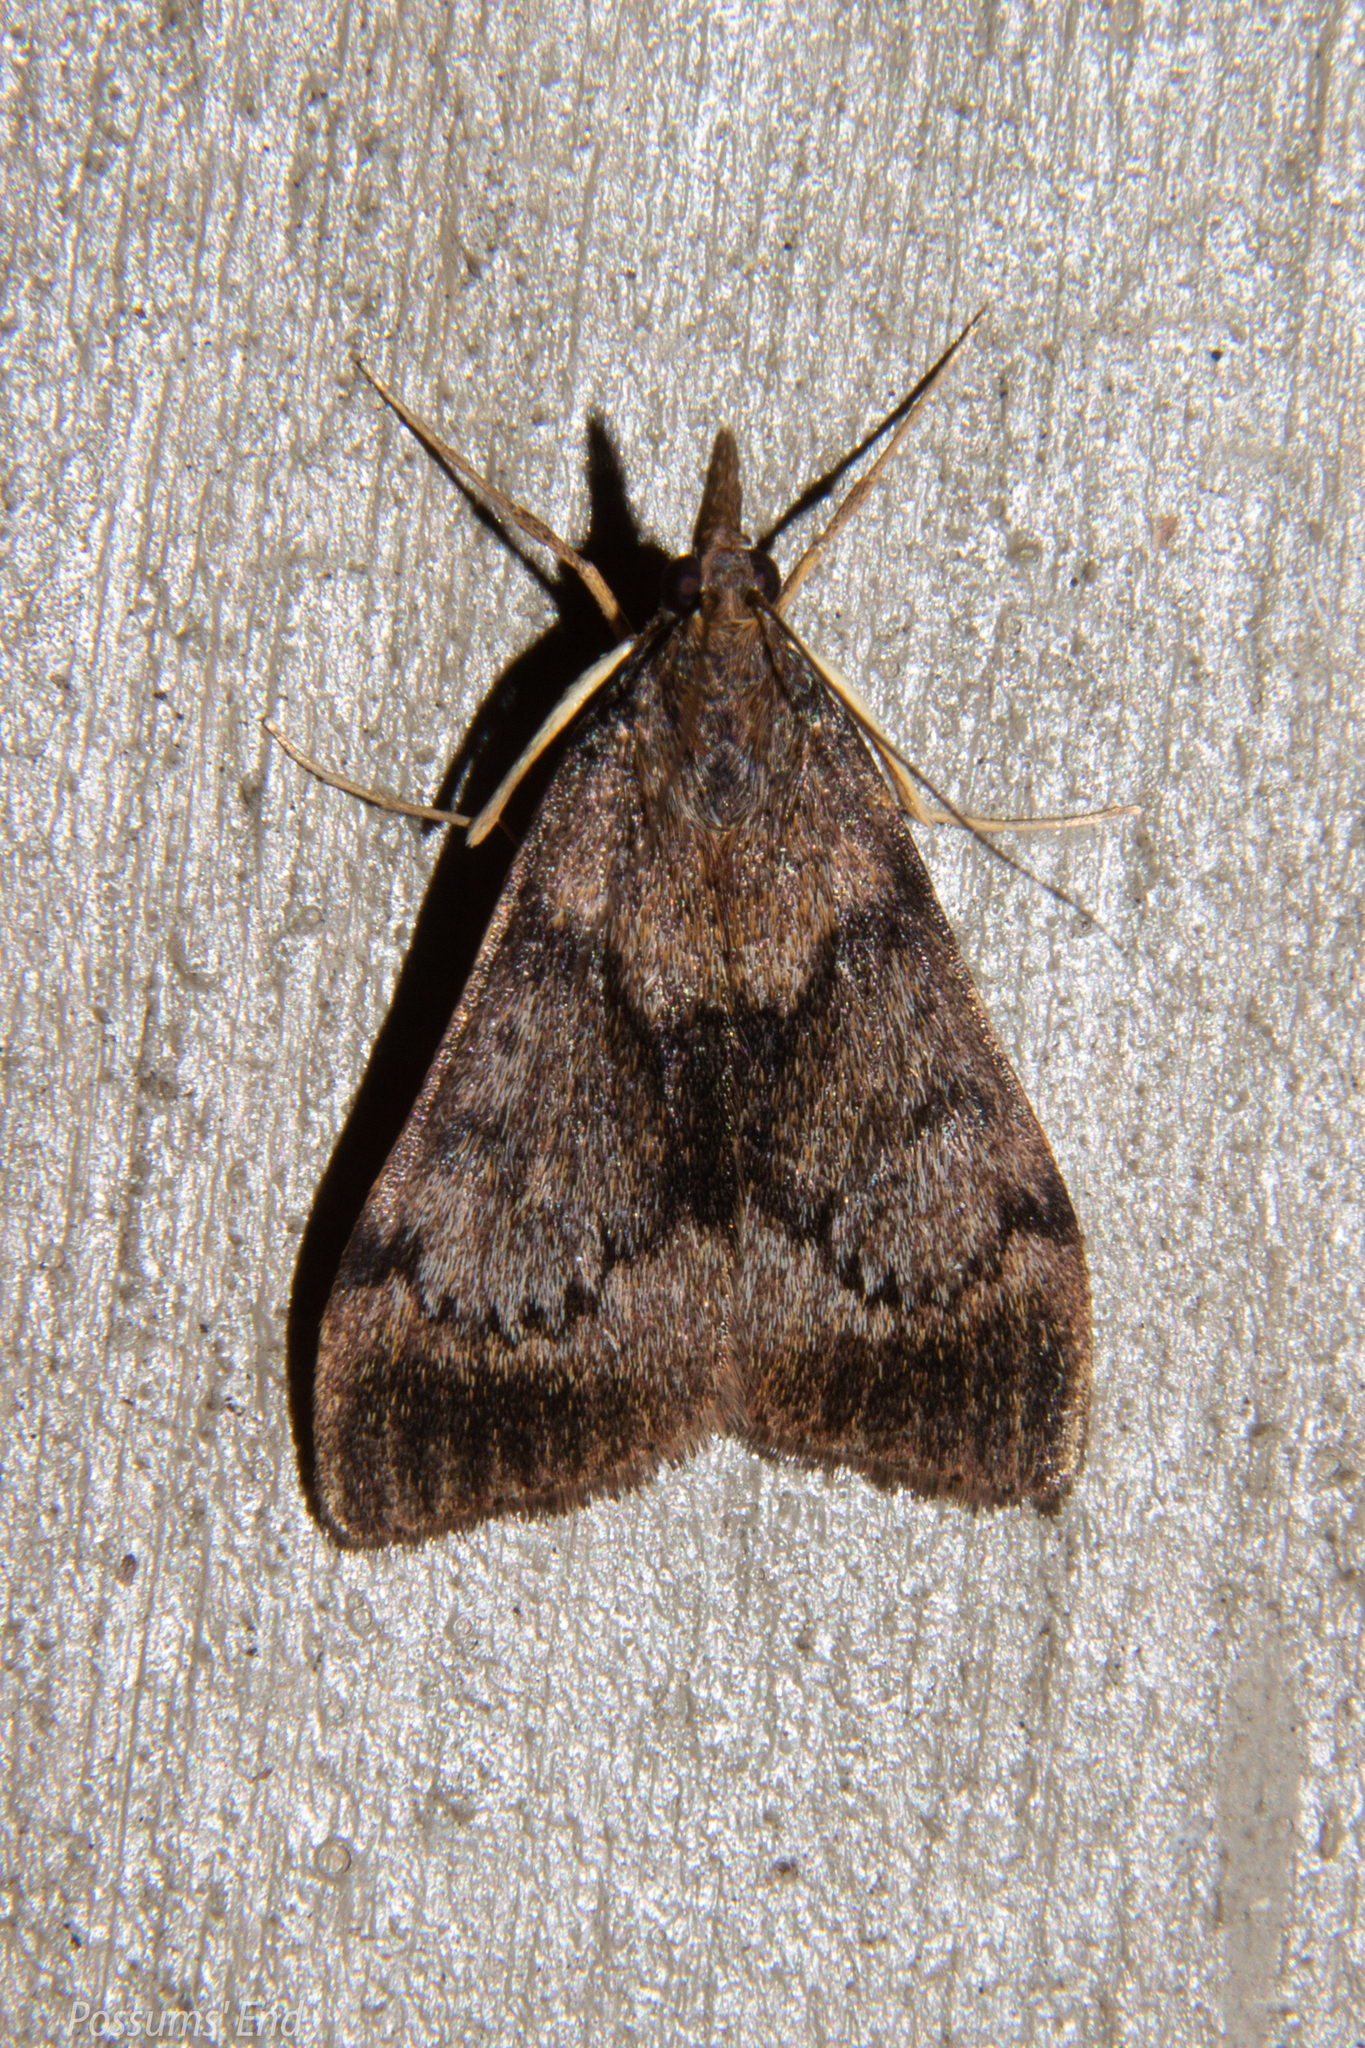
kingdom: Animalia
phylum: Arthropoda
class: Insecta
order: Lepidoptera
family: Crambidae
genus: Uresiphita
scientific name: Uresiphita
